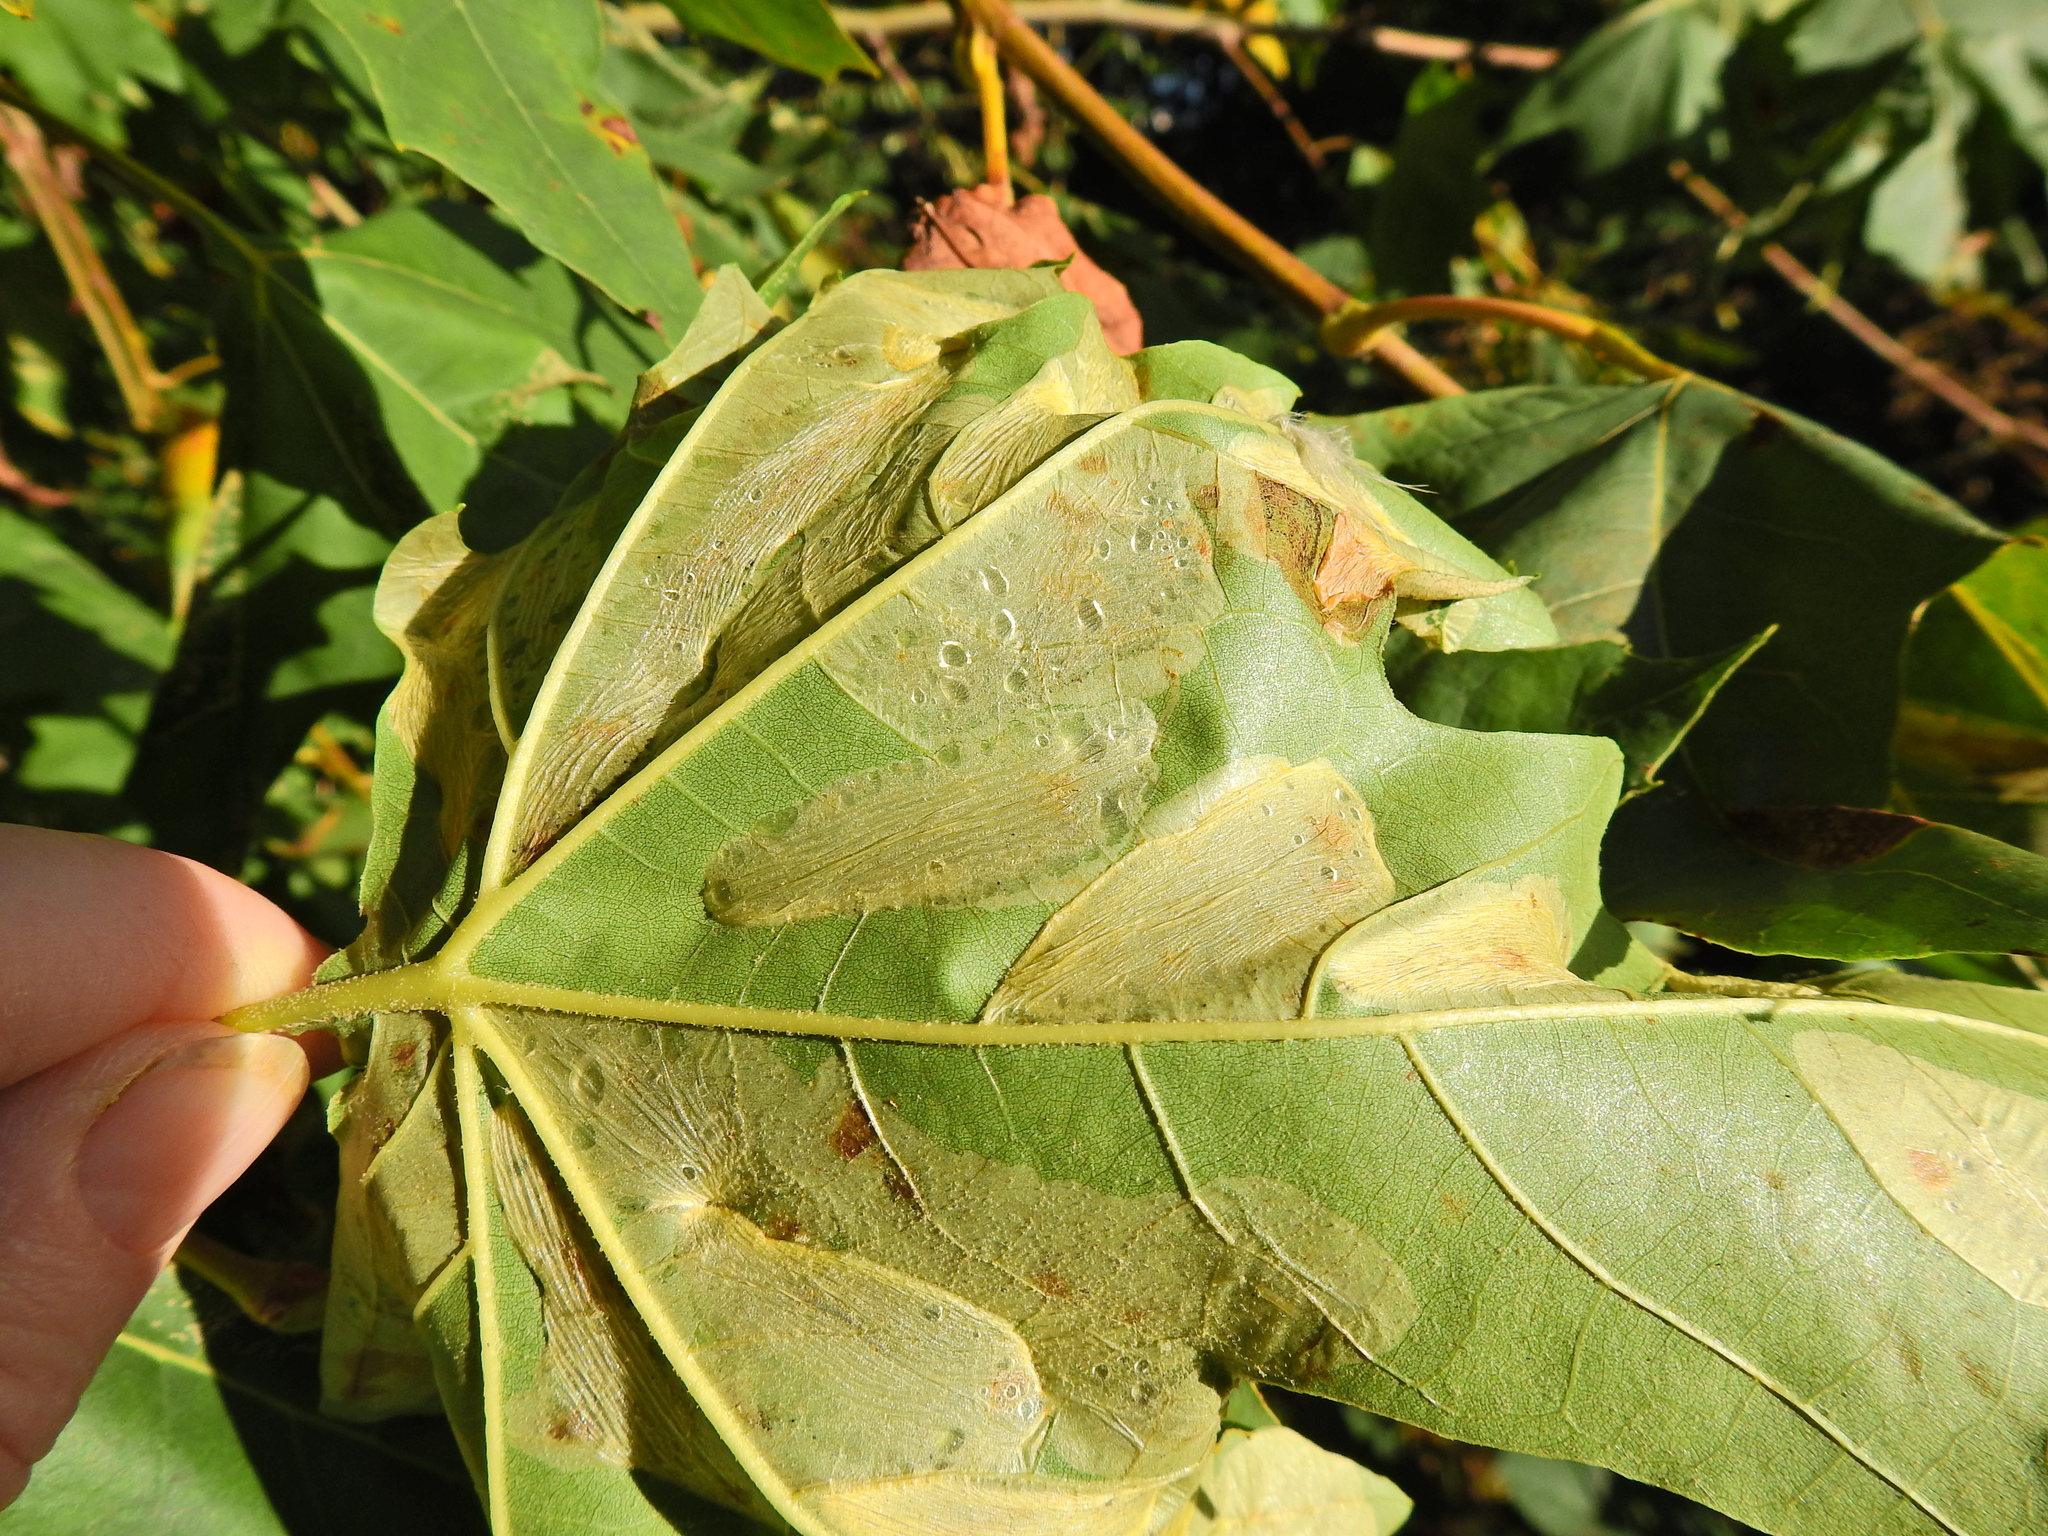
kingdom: Animalia
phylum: Arthropoda
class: Insecta
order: Lepidoptera
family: Gracillariidae
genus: Phyllonorycter
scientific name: Phyllonorycter platani
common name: London midget
